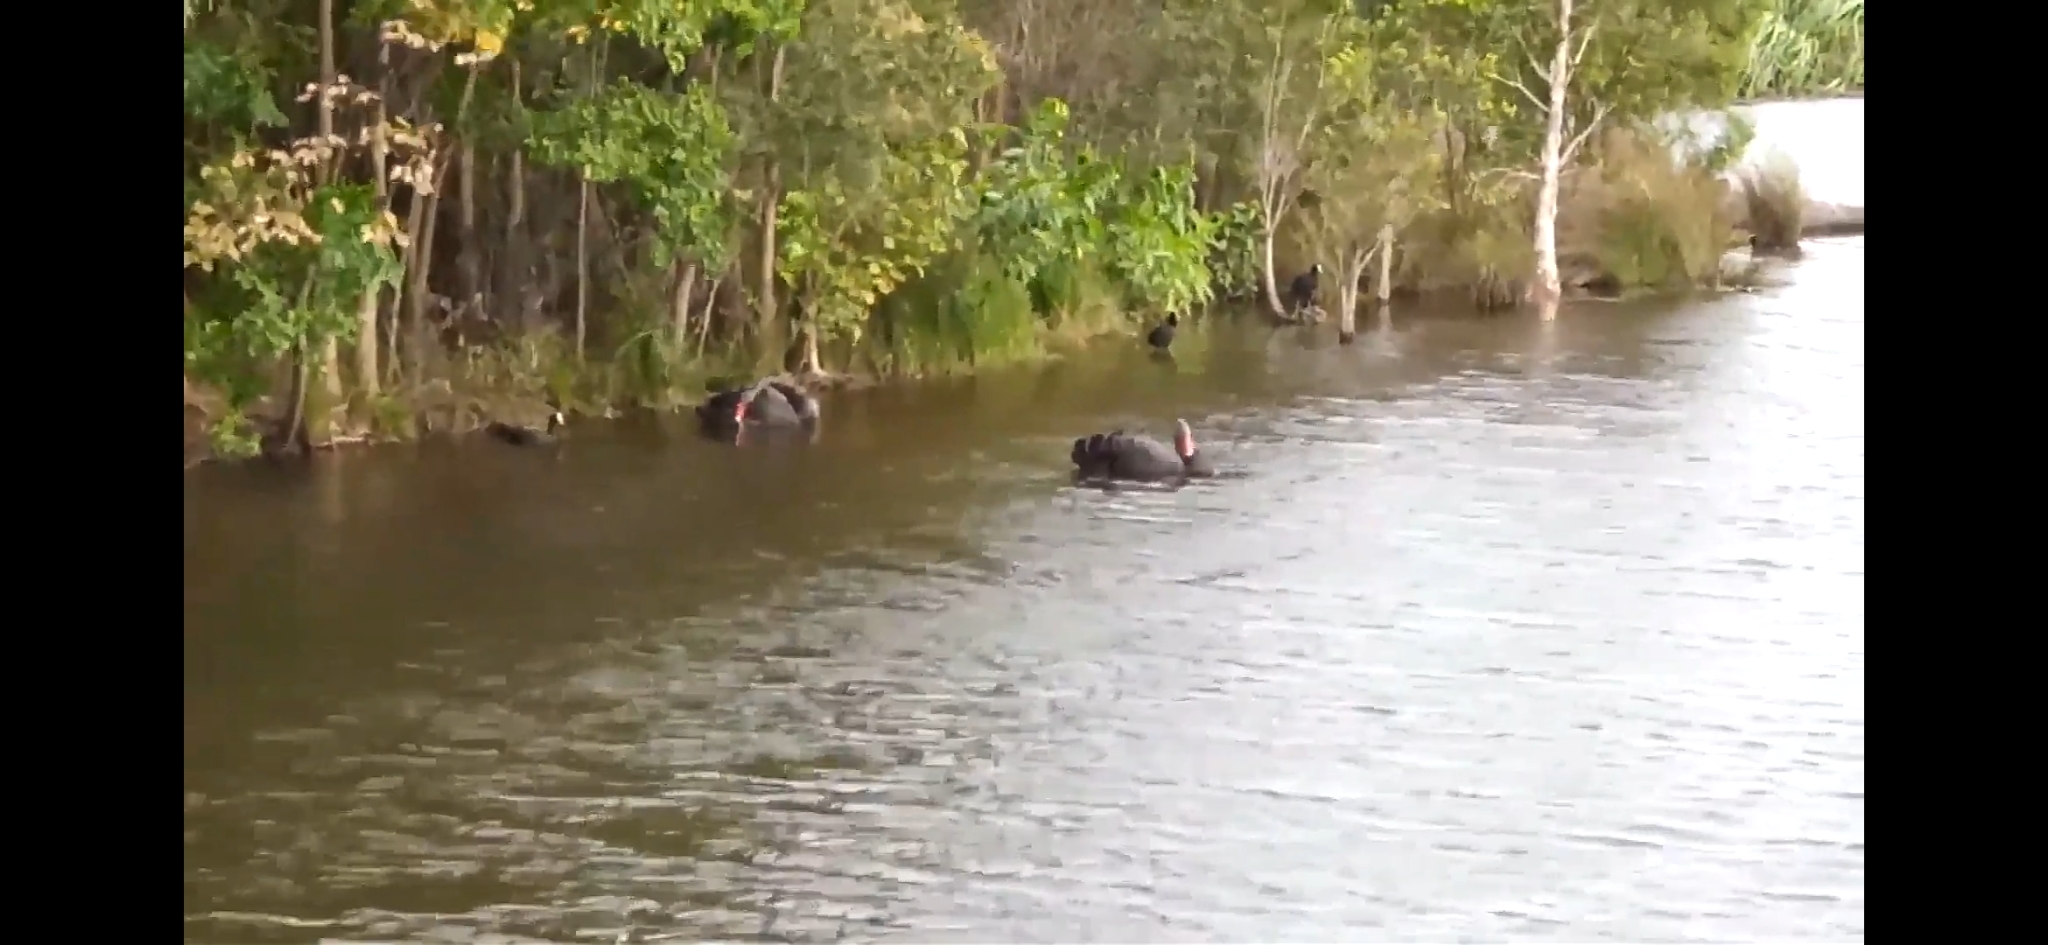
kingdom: Animalia
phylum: Chordata
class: Aves
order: Gruiformes
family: Rallidae
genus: Fulica
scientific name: Fulica atra
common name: Eurasian coot
